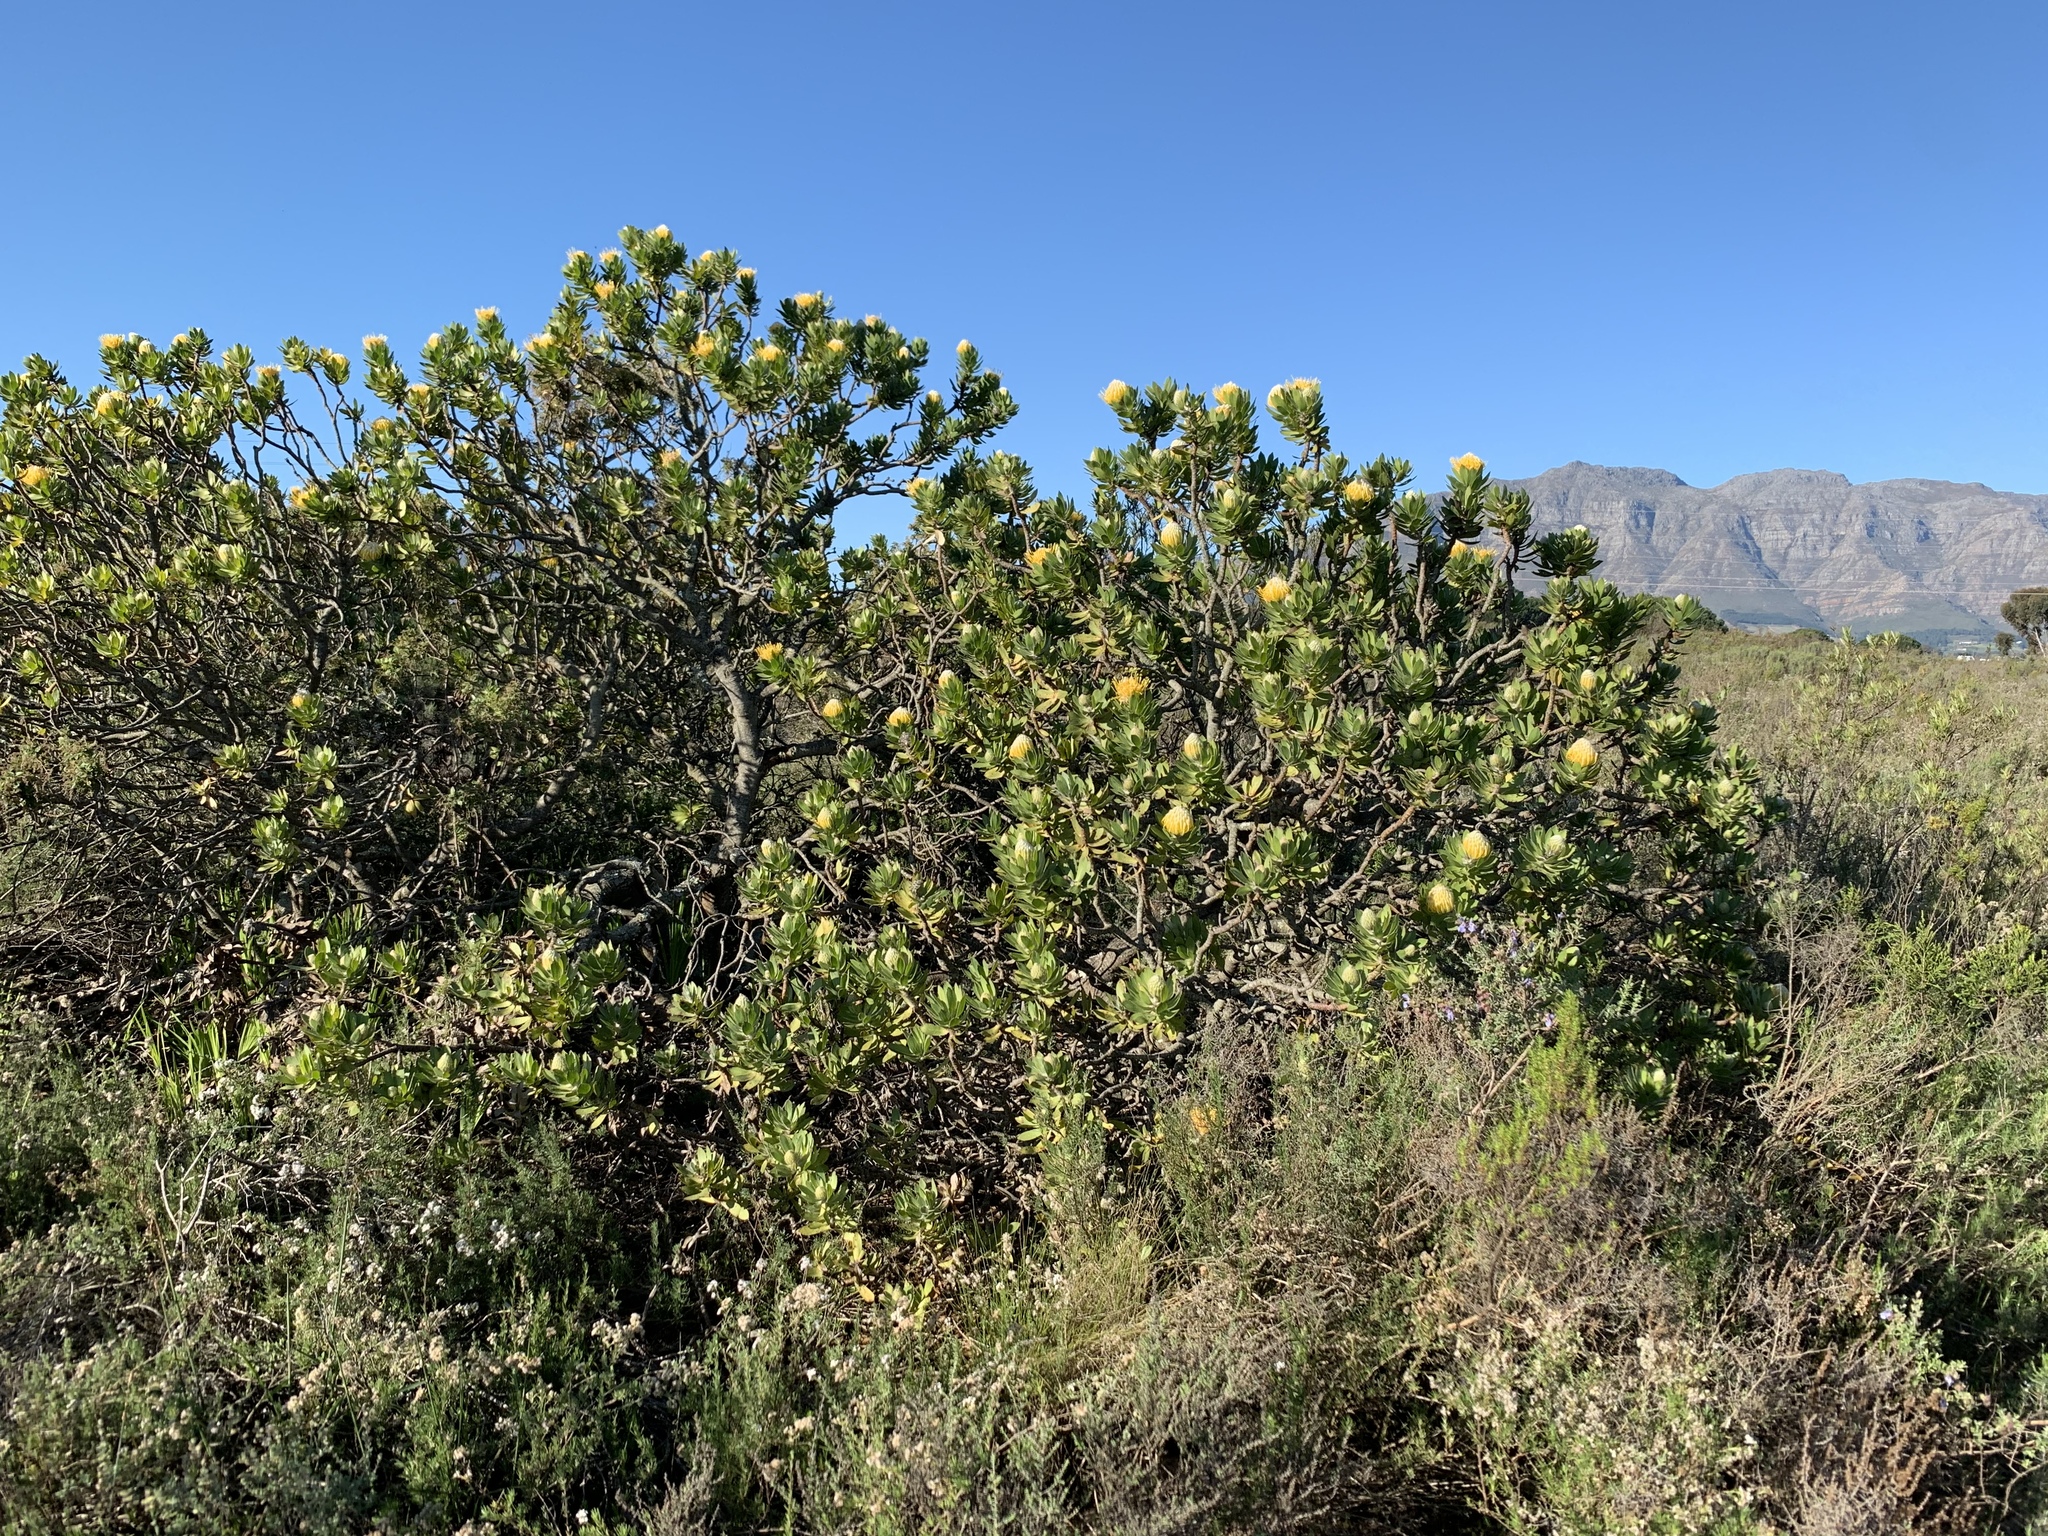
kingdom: Plantae
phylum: Tracheophyta
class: Magnoliopsida
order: Proteales
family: Proteaceae
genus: Leucospermum
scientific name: Leucospermum conocarpodendron
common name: Tree pincushion
